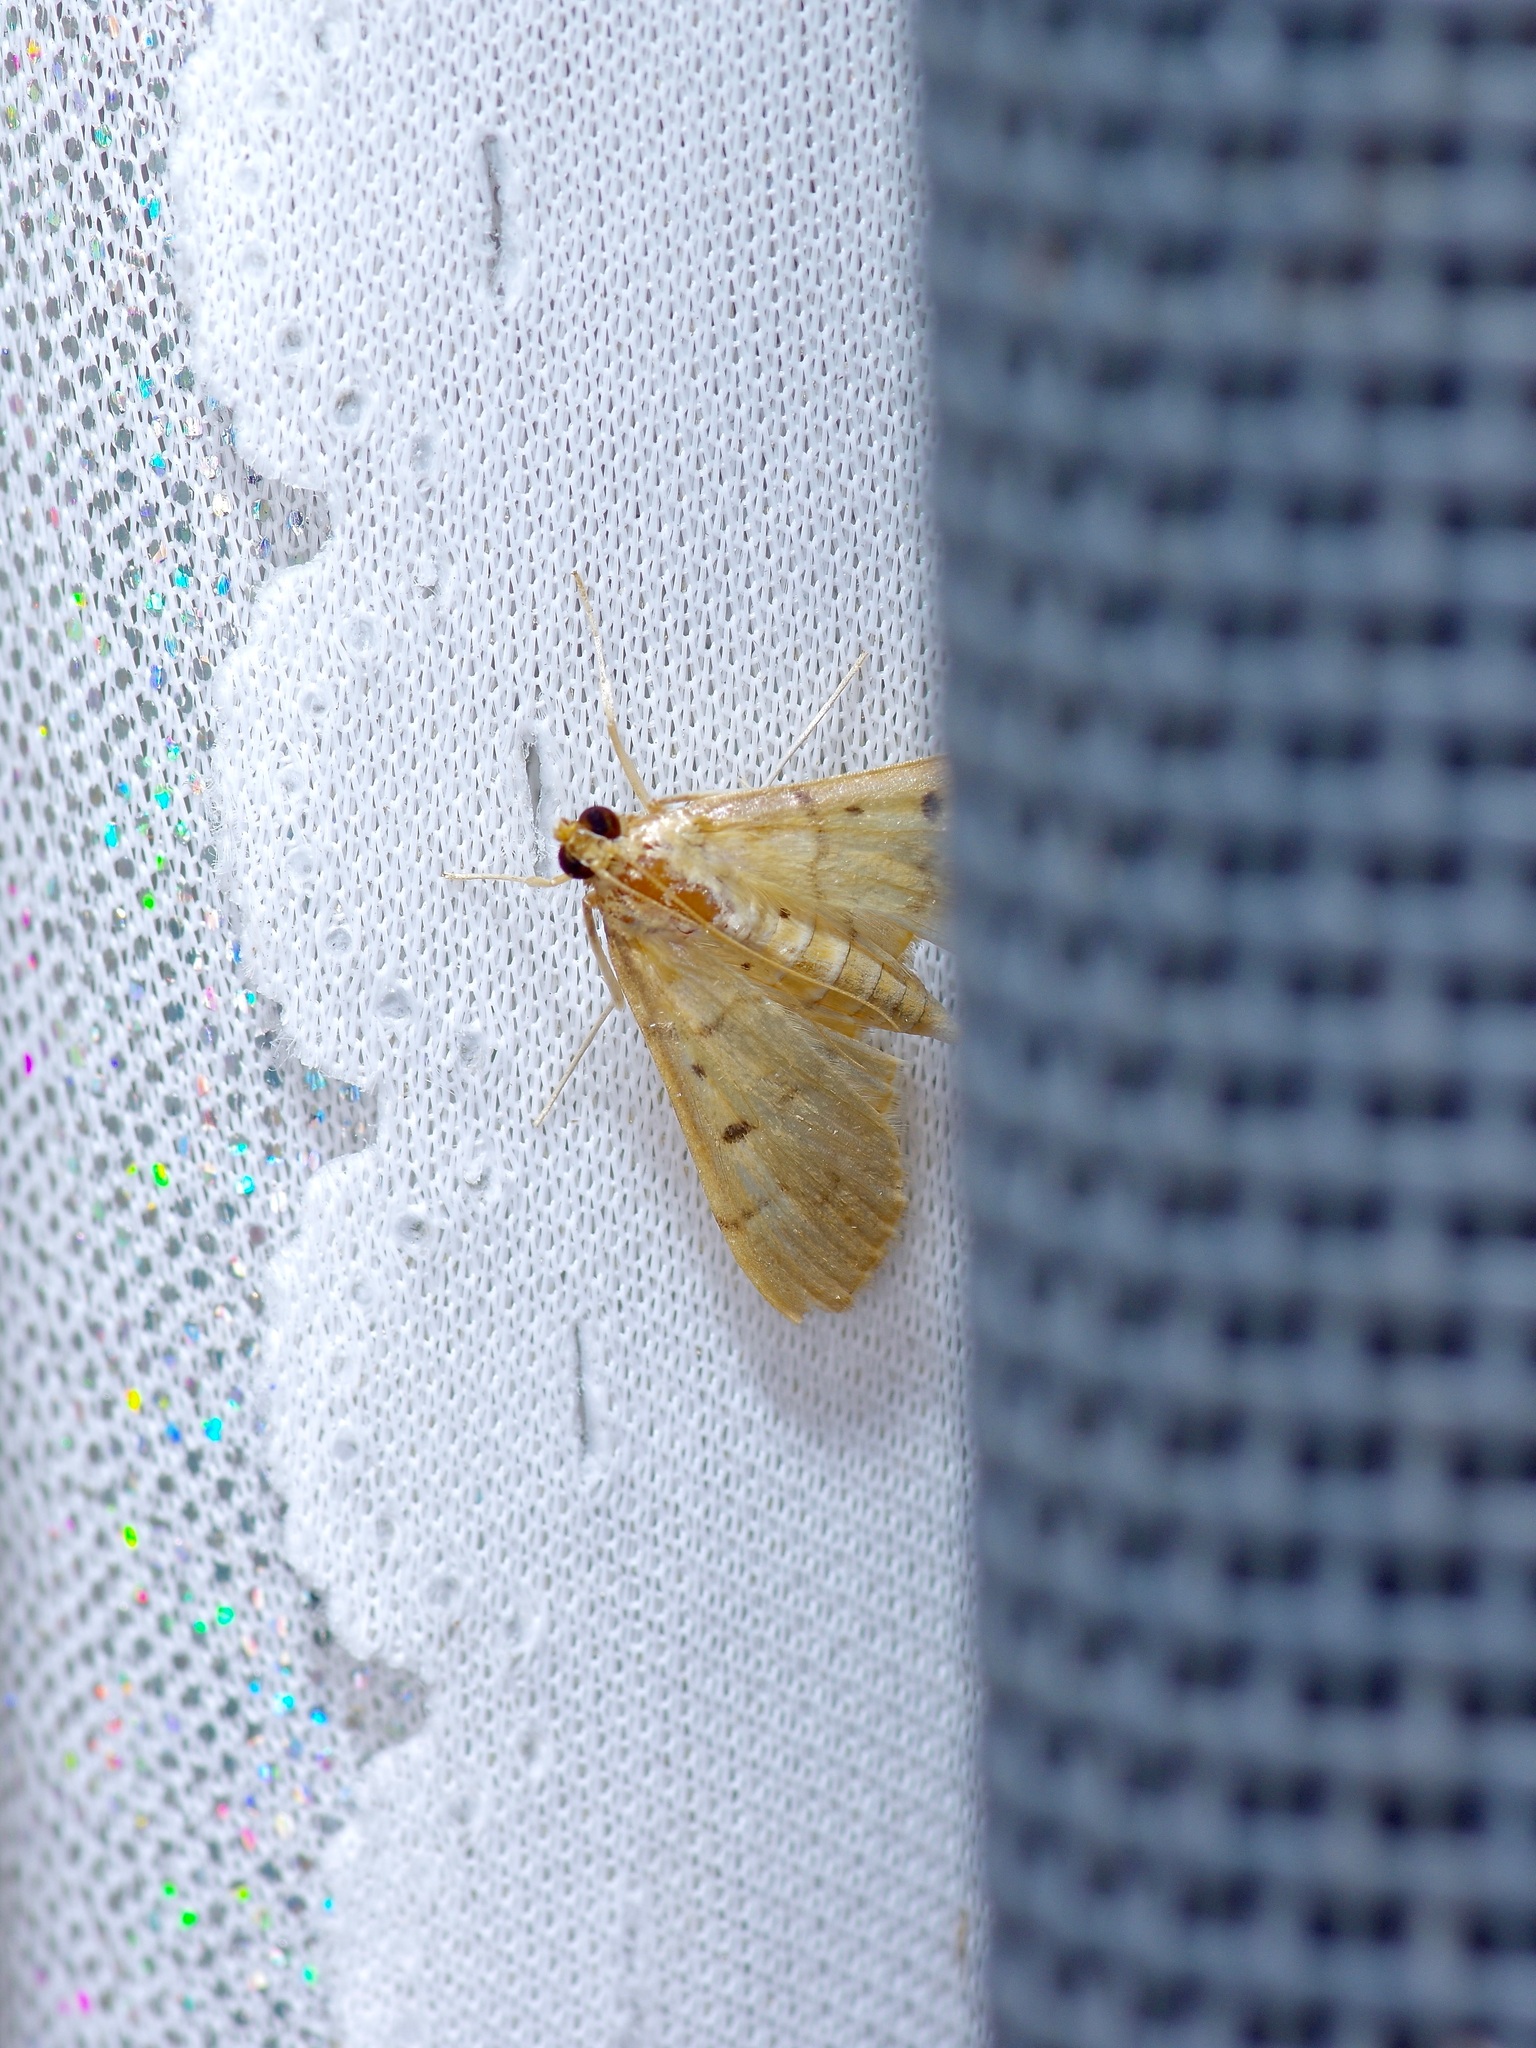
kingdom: Animalia
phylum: Arthropoda
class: Insecta
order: Lepidoptera
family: Crambidae
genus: Herpetogramma
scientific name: Herpetogramma bipunctalis
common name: Southern beet webworm
